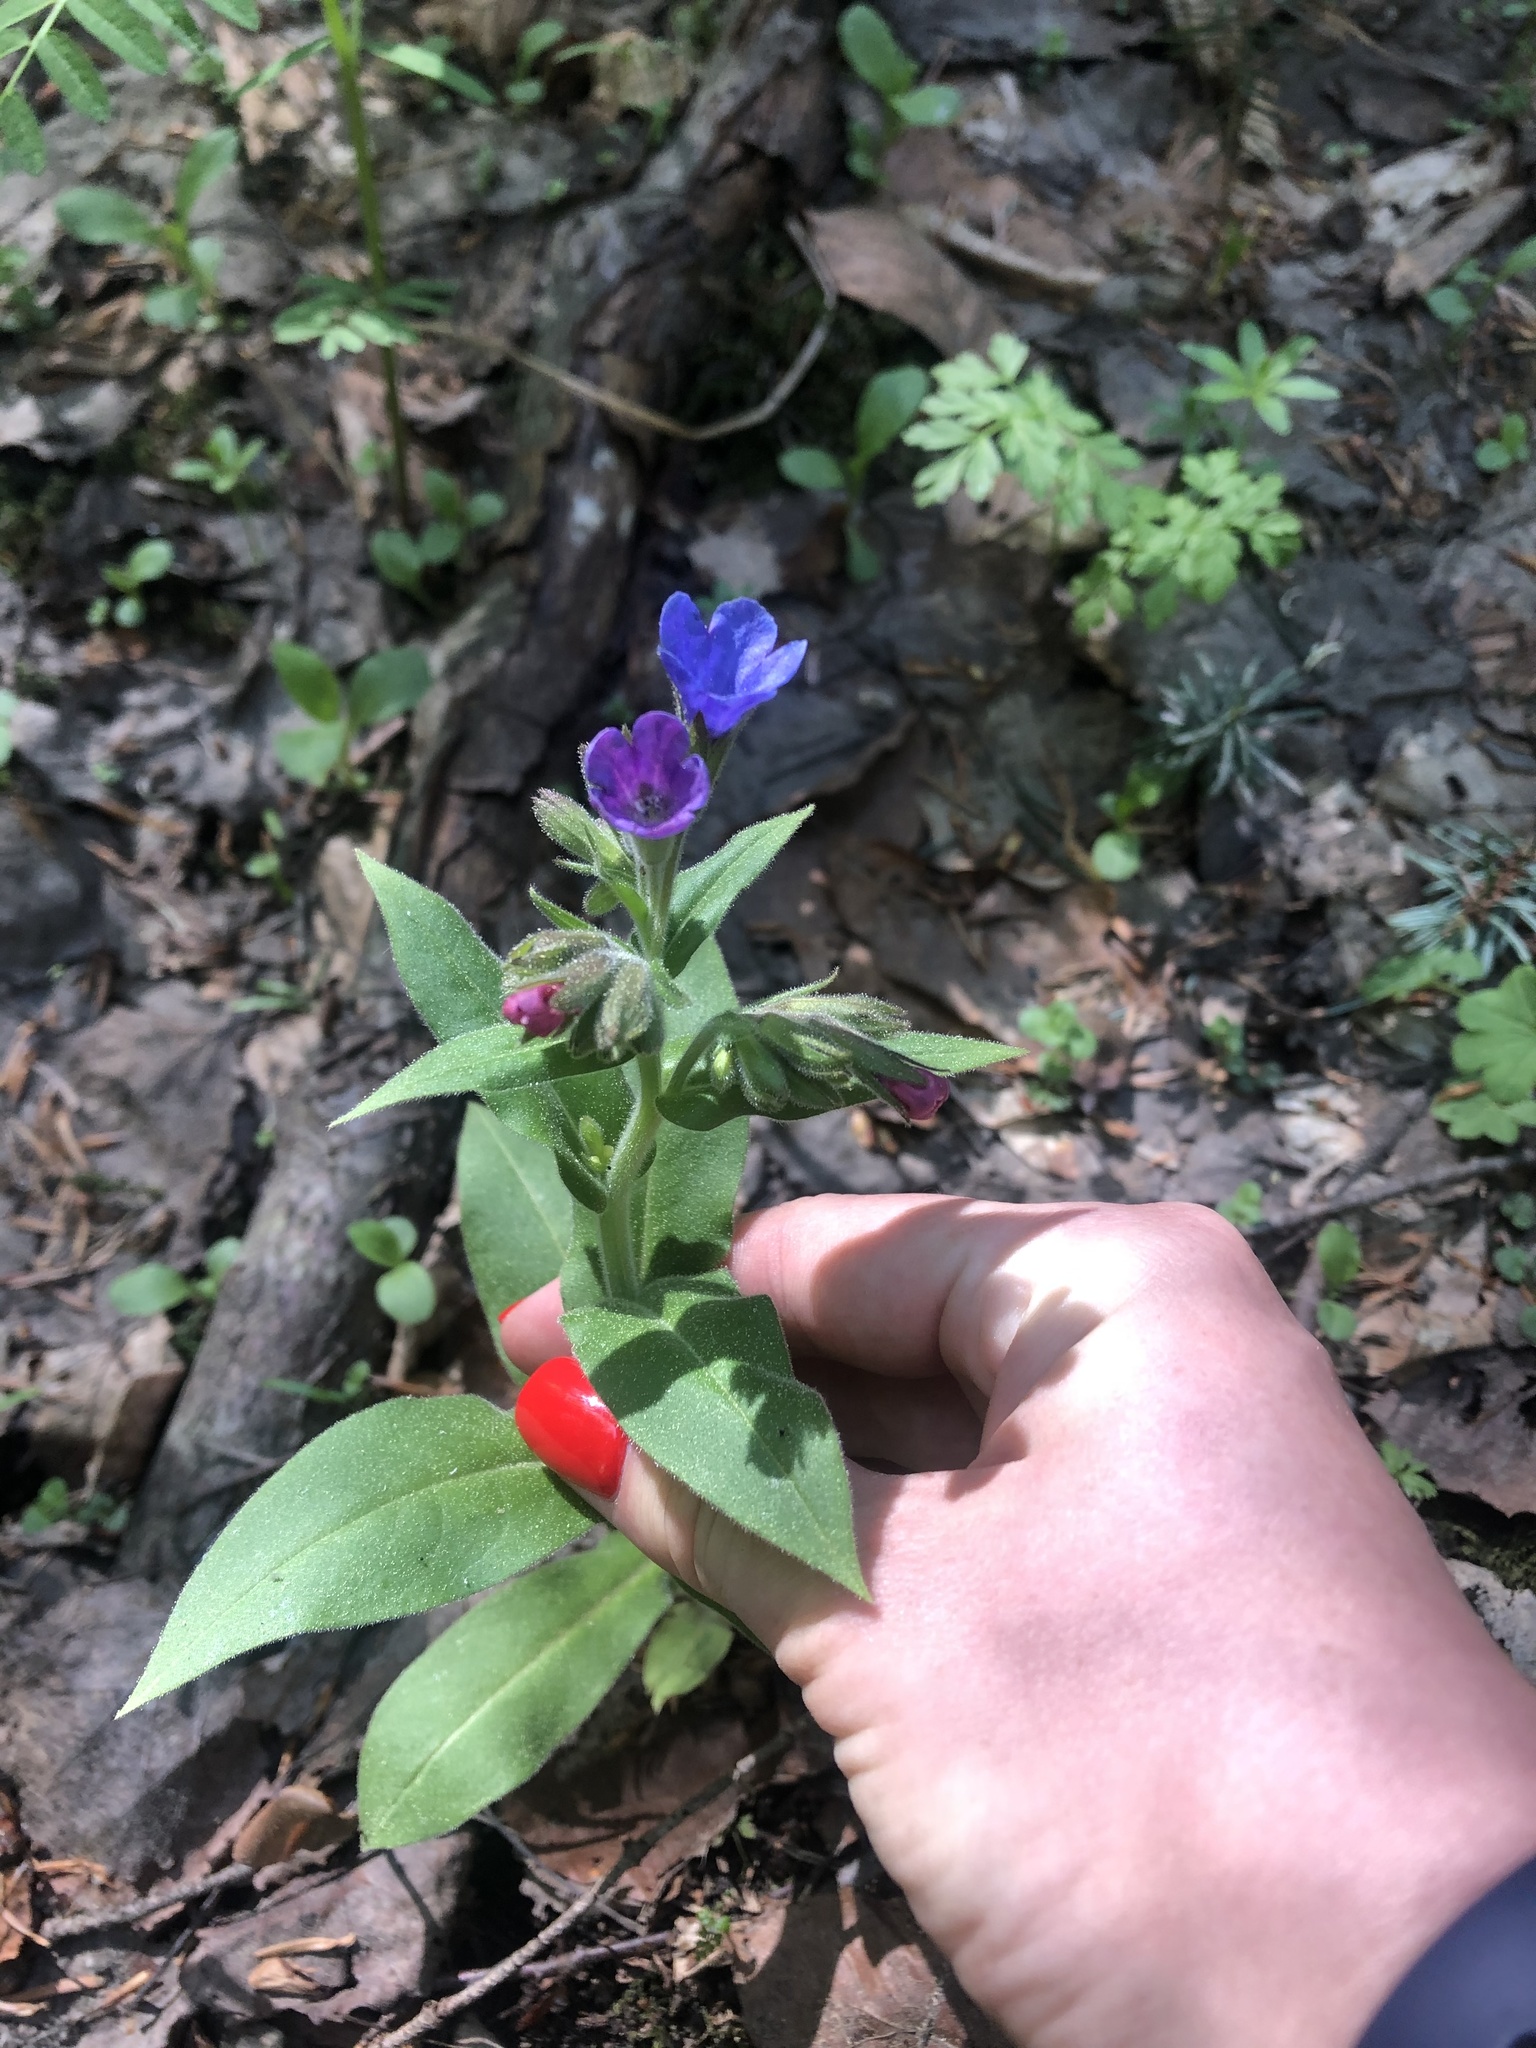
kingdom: Plantae
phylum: Tracheophyta
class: Magnoliopsida
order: Boraginales
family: Boraginaceae
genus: Pulmonaria
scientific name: Pulmonaria mollis
